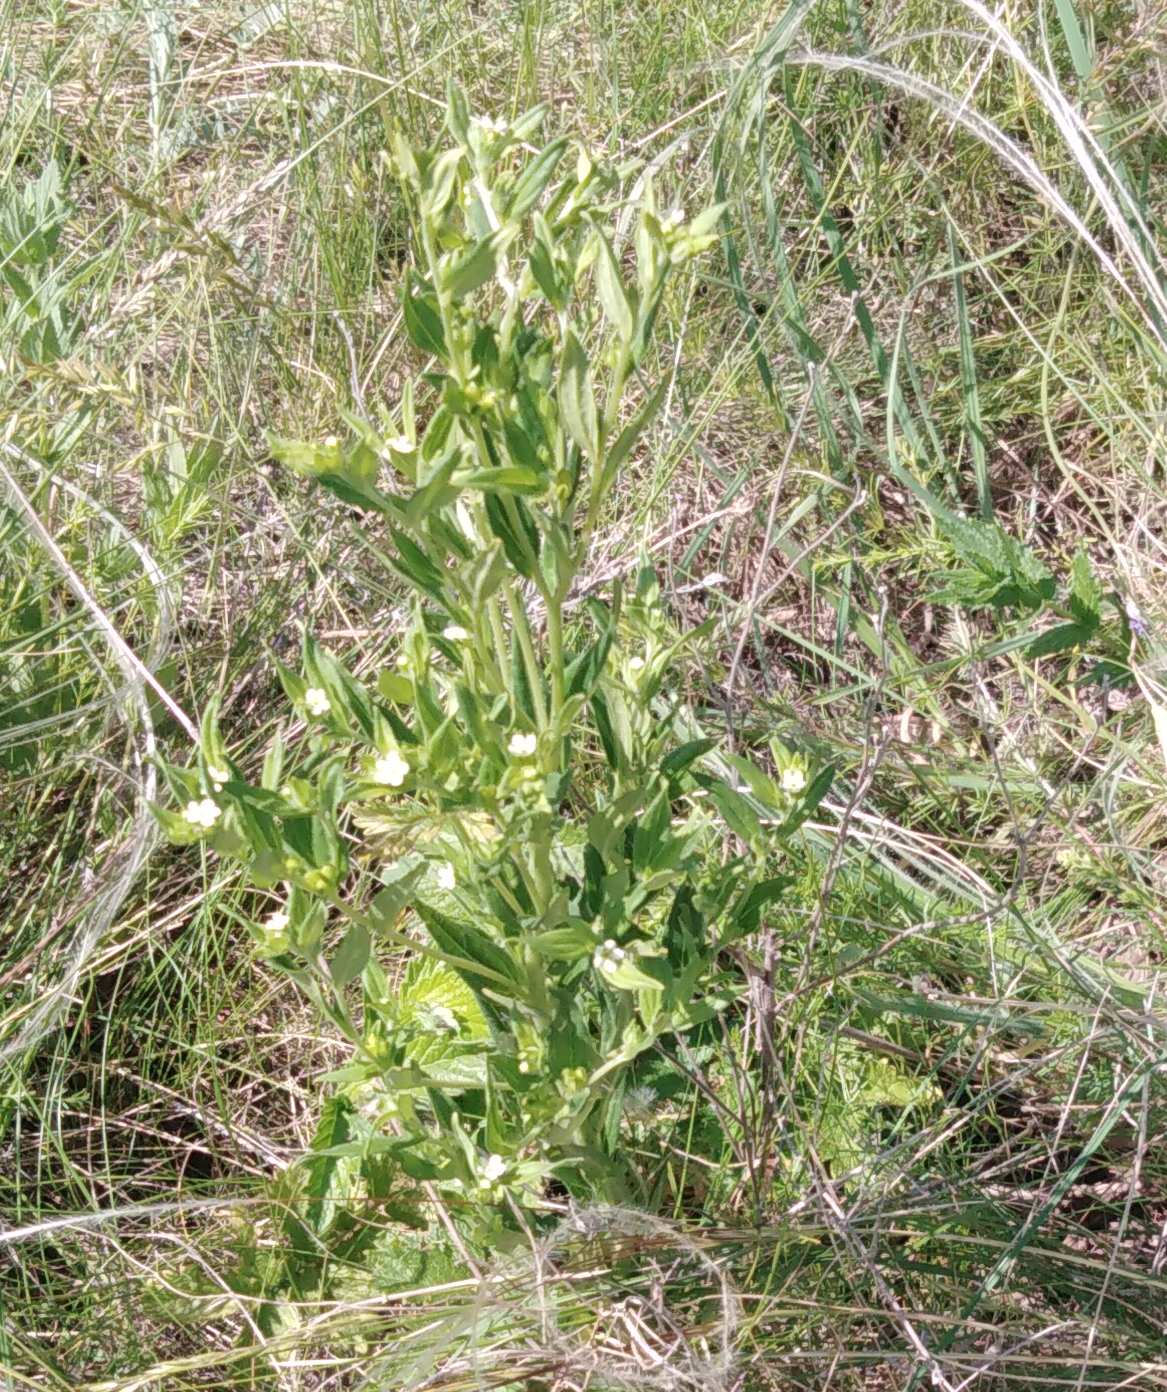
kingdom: Plantae
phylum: Tracheophyta
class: Magnoliopsida
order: Boraginales
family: Boraginaceae
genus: Lithospermum
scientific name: Lithospermum officinale
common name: Common gromwell
